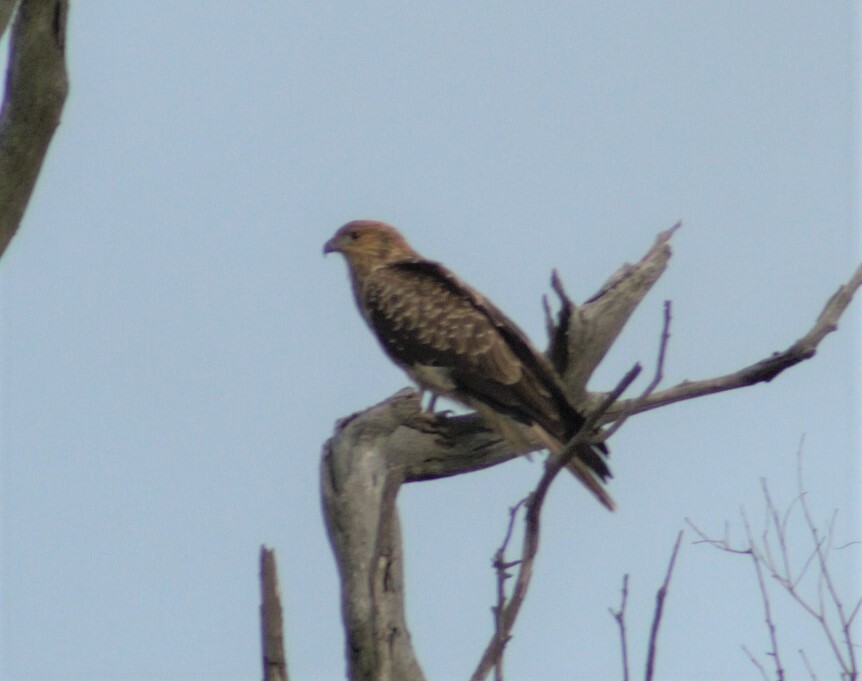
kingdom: Animalia
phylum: Chordata
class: Aves
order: Accipitriformes
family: Accipitridae
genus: Haliastur
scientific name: Haliastur sphenurus
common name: Whistling kite
